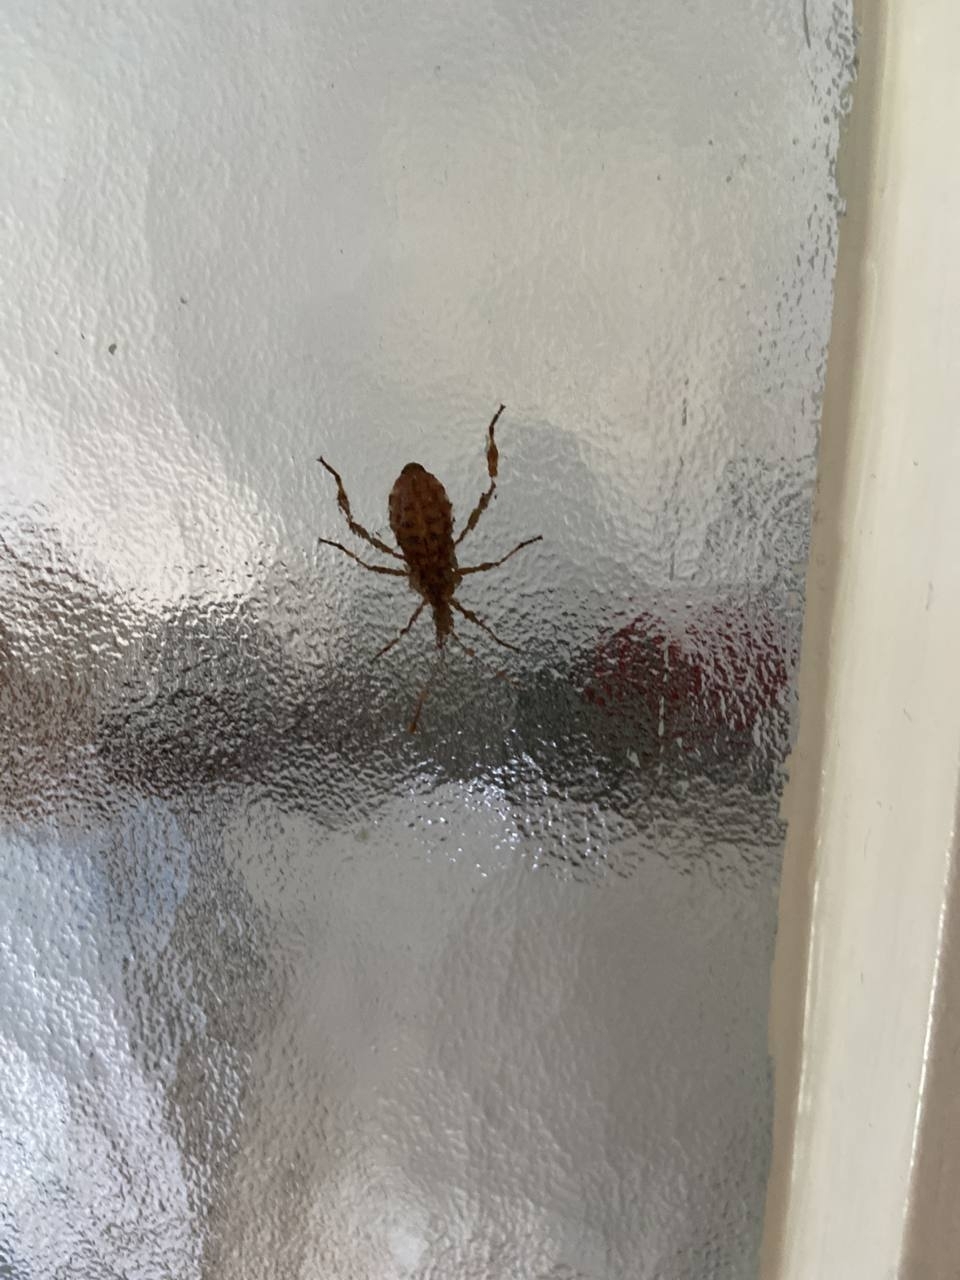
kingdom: Animalia
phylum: Arthropoda
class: Insecta
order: Hemiptera
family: Coreidae
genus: Leptoglossus
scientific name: Leptoglossus occidentalis
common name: Western conifer-seed bug
